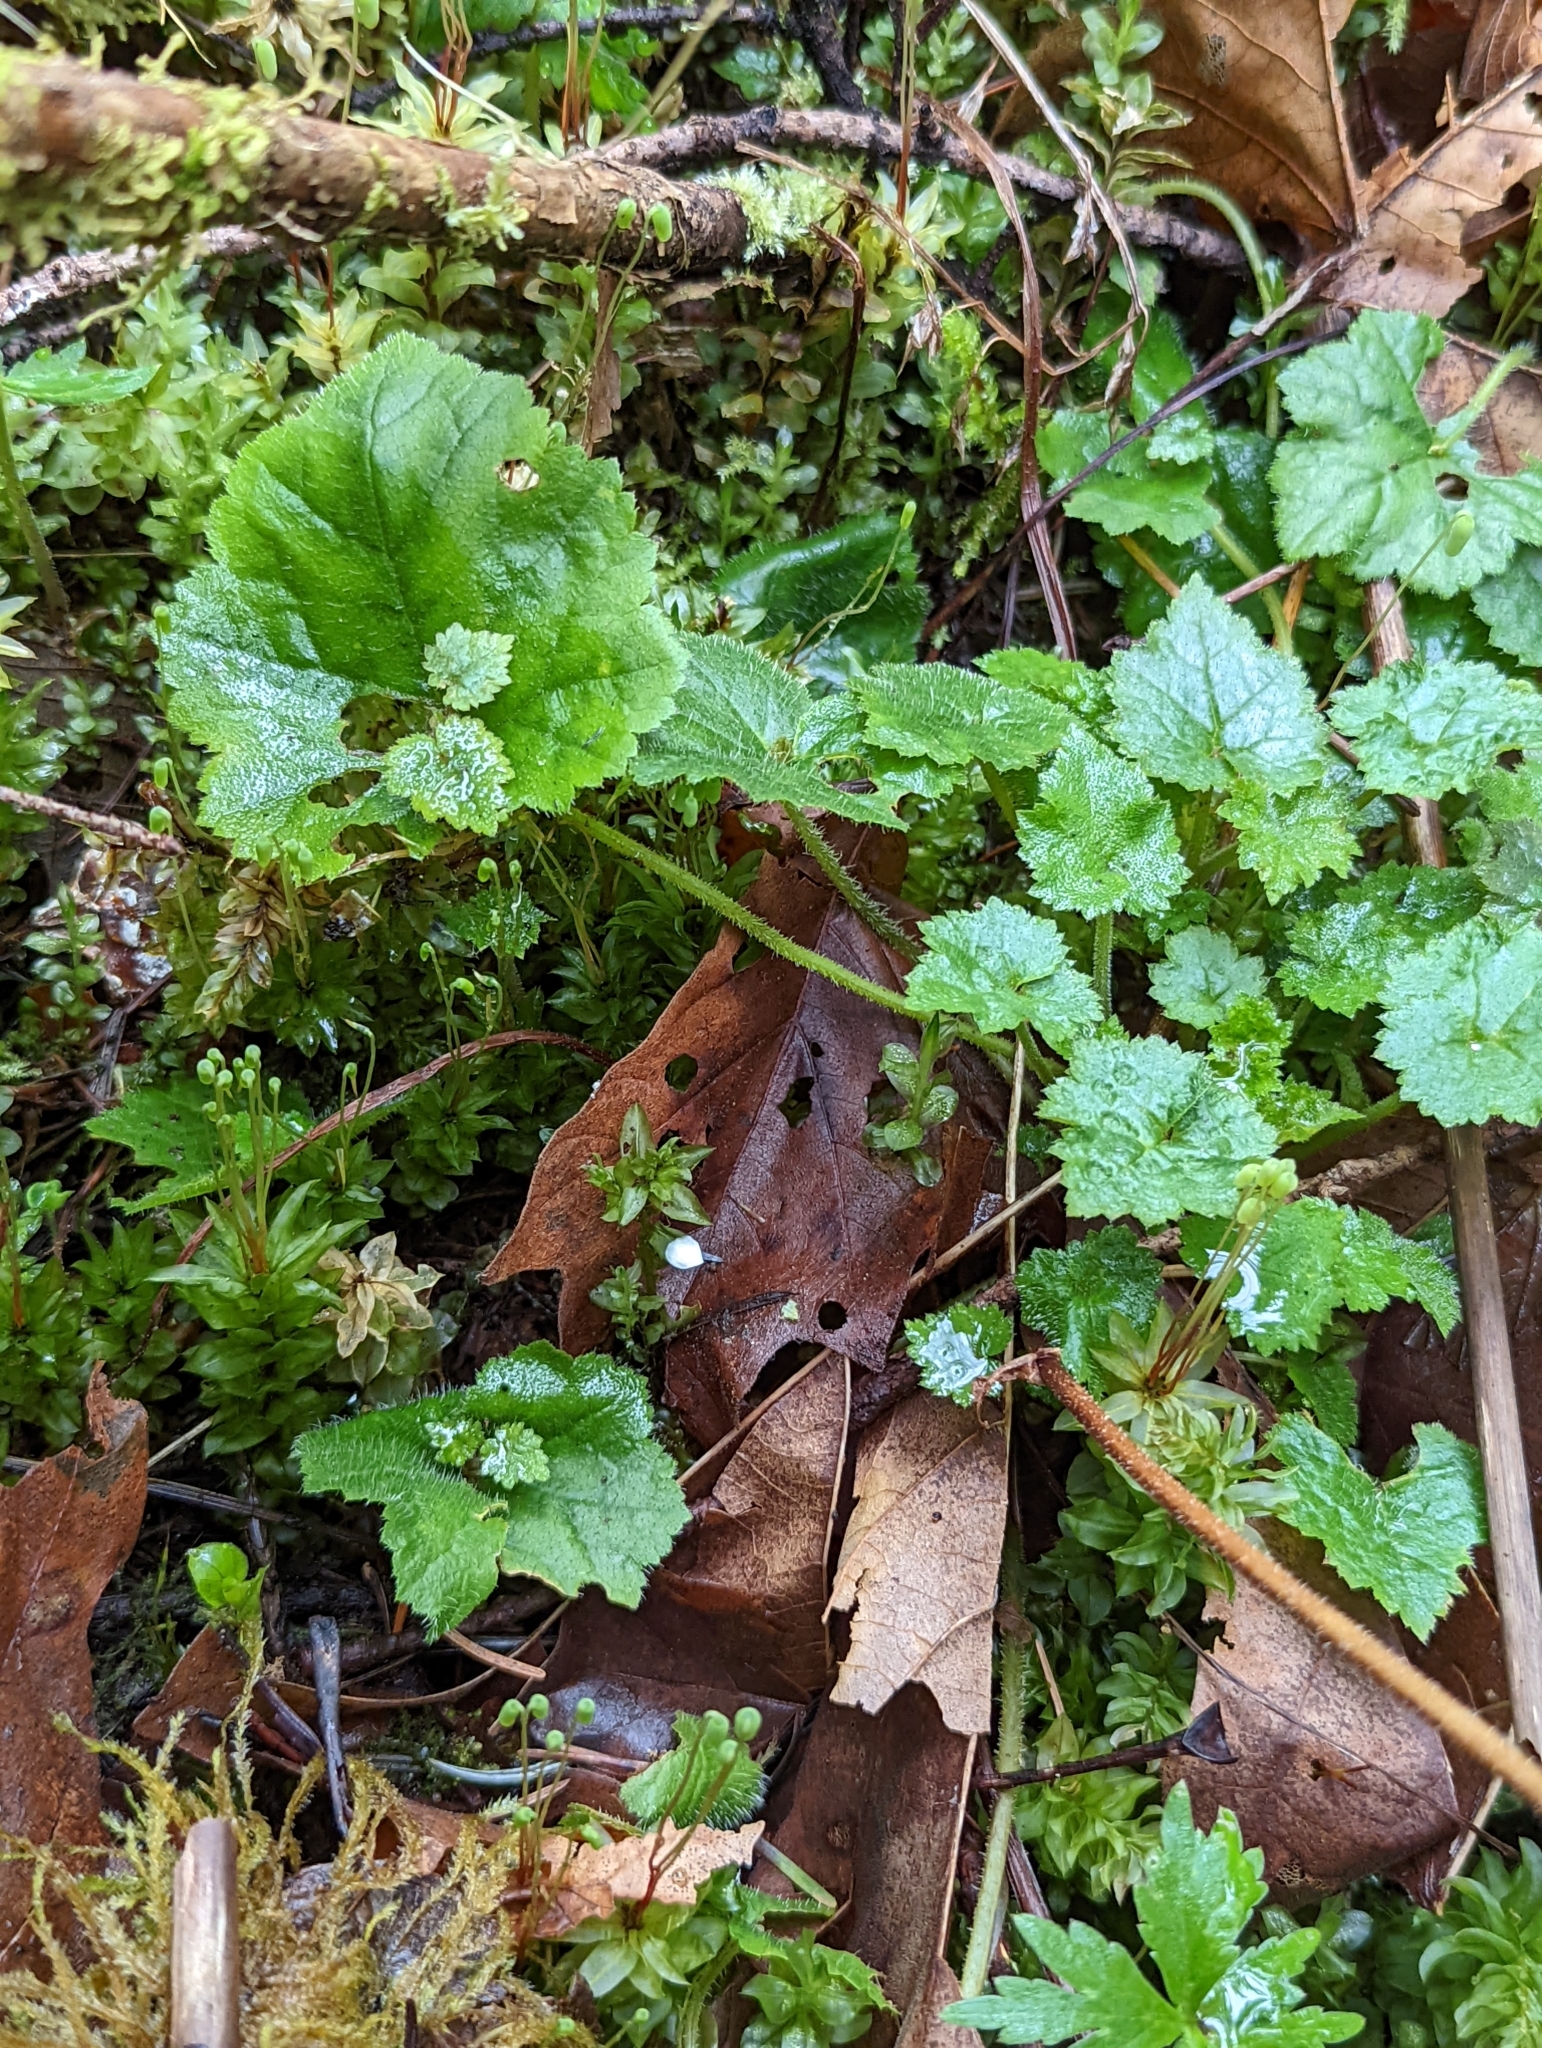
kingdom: Plantae
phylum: Tracheophyta
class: Magnoliopsida
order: Saxifragales
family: Saxifragaceae
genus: Tolmiea
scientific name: Tolmiea menziesii
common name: Pick-a-back-plant
